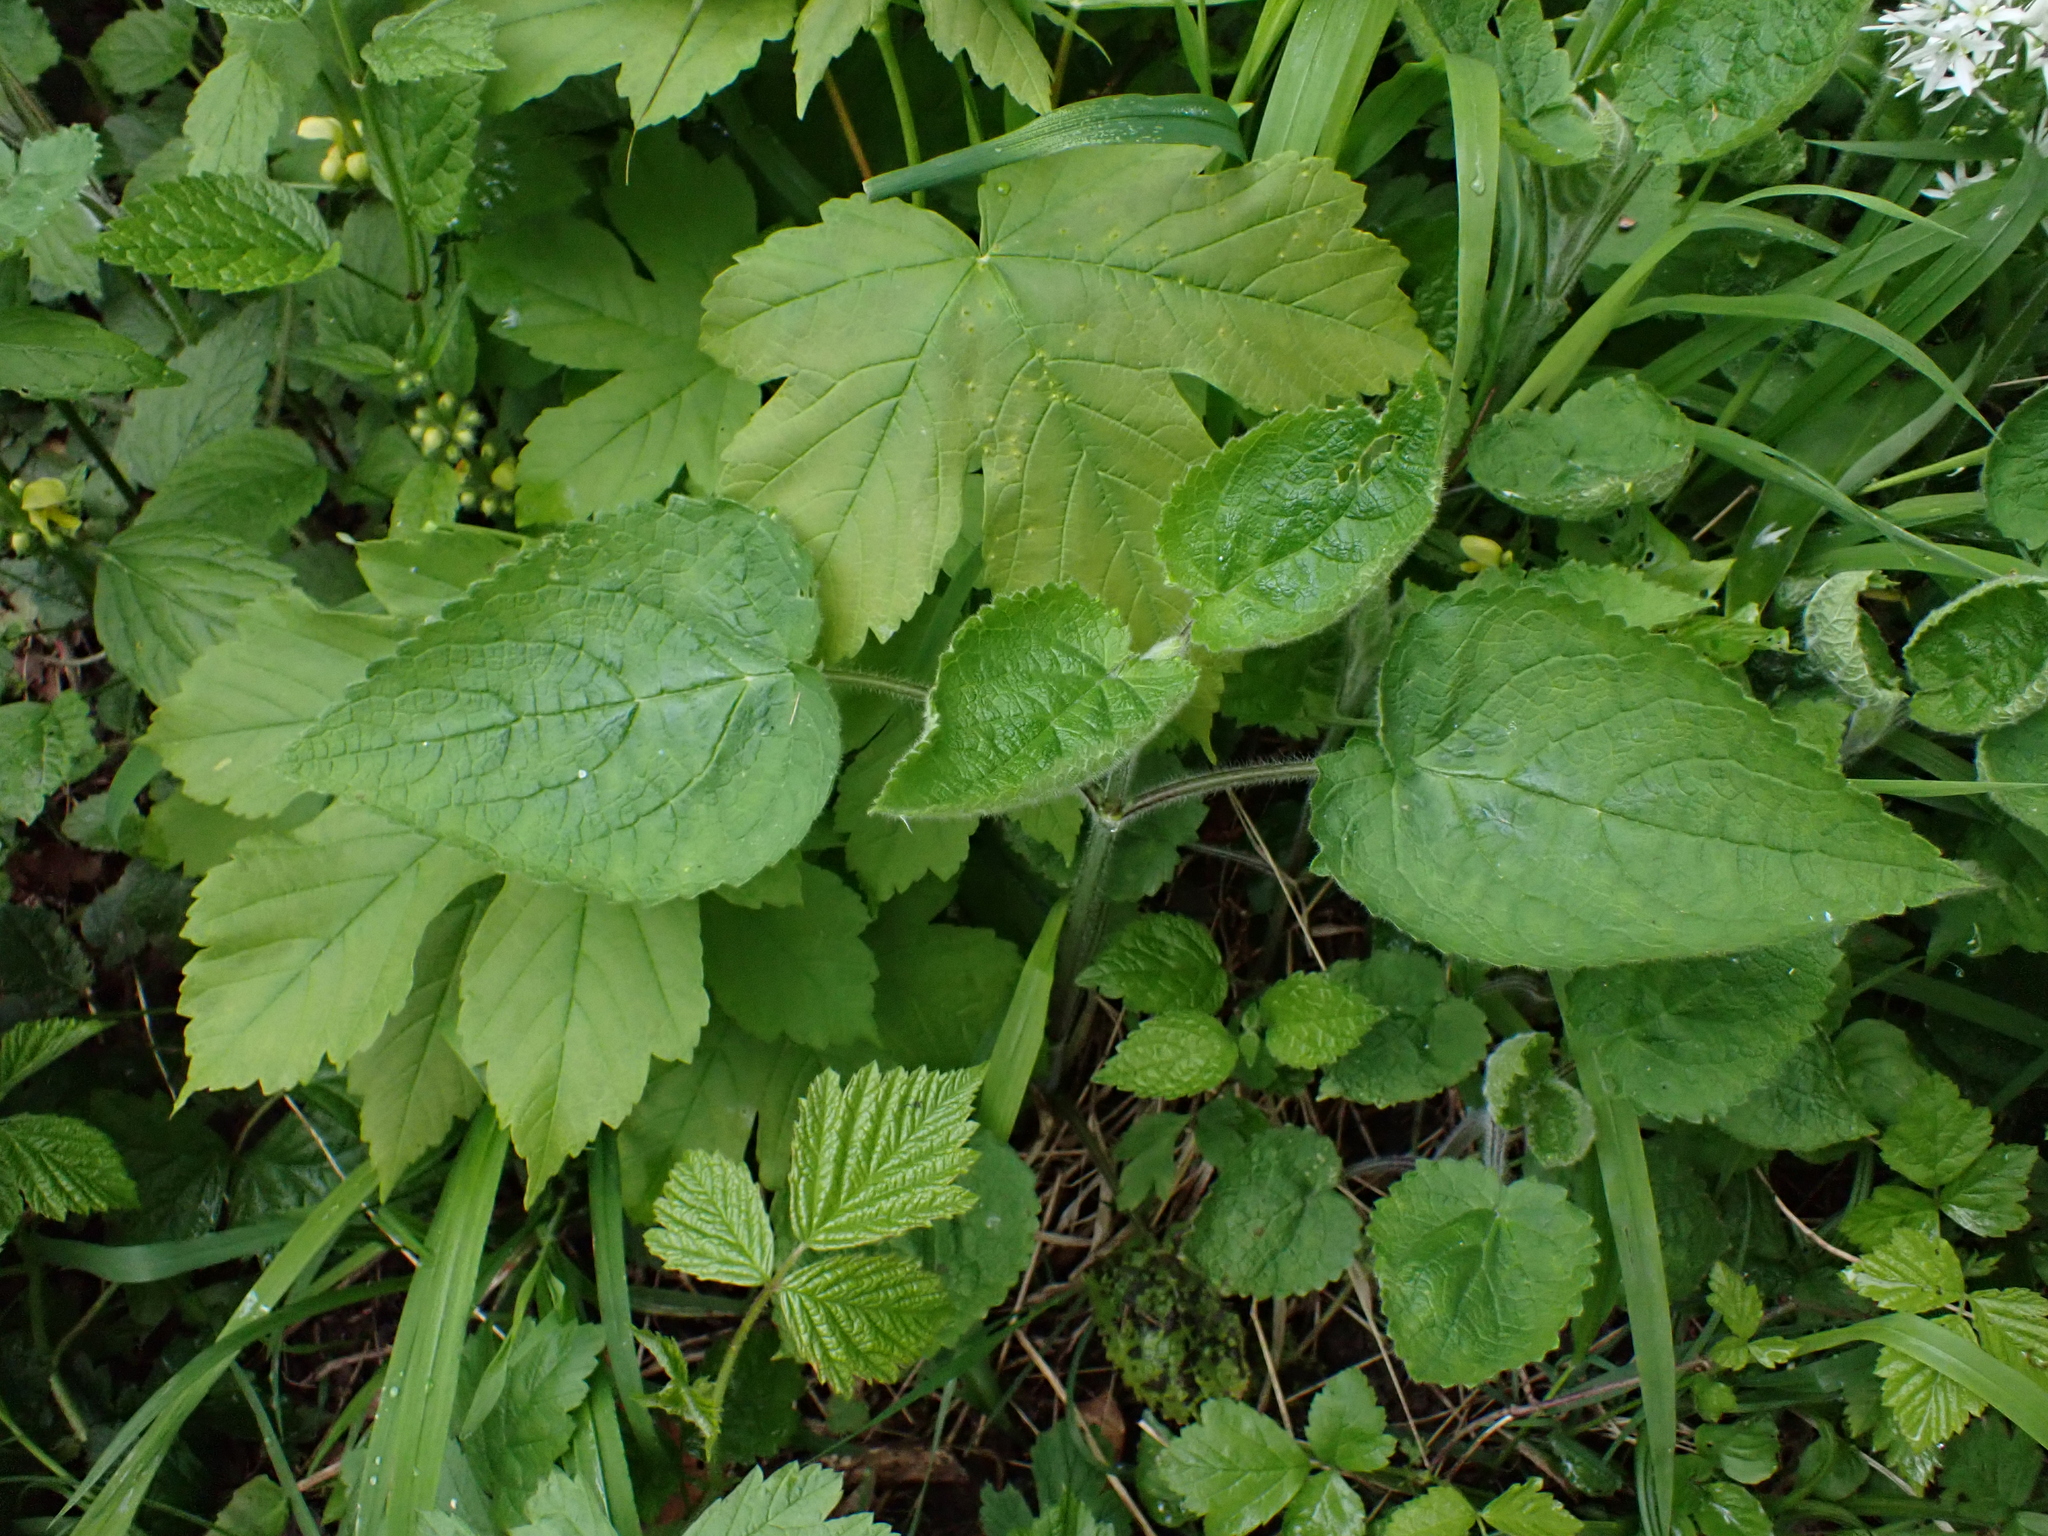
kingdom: Plantae
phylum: Tracheophyta
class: Magnoliopsida
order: Lamiales
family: Lamiaceae
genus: Stachys
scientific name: Stachys sylvatica
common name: Hedge woundwort
